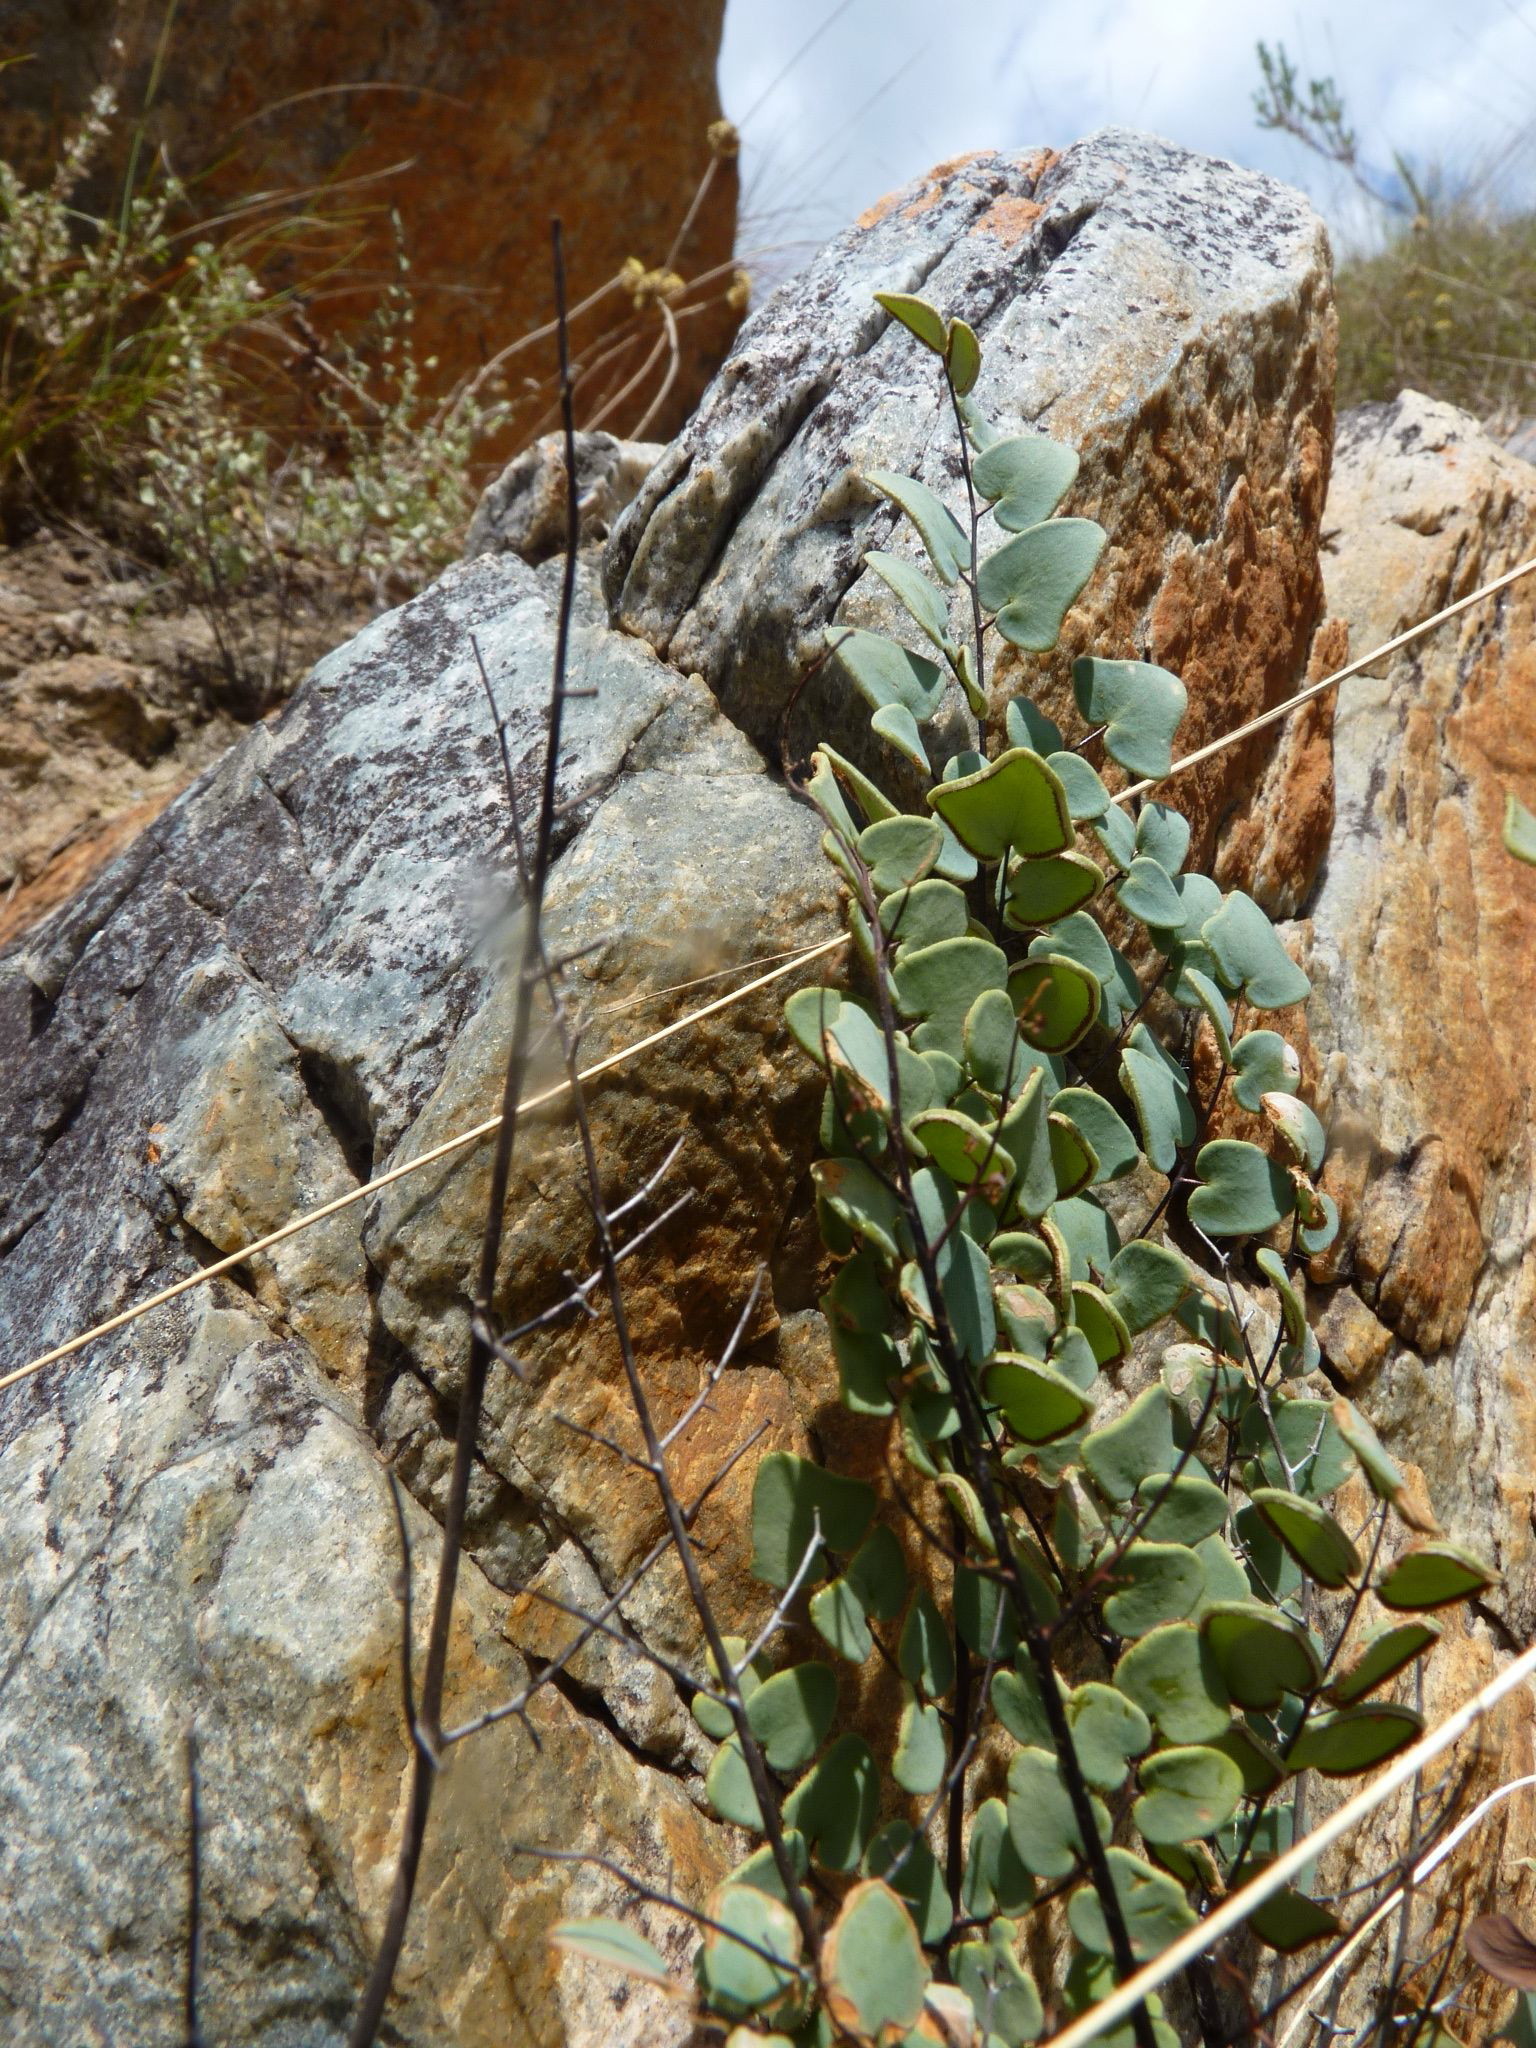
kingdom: Plantae
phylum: Tracheophyta
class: Polypodiopsida
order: Polypodiales
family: Pteridaceae
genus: Pellaea
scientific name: Pellaea calomelanos
